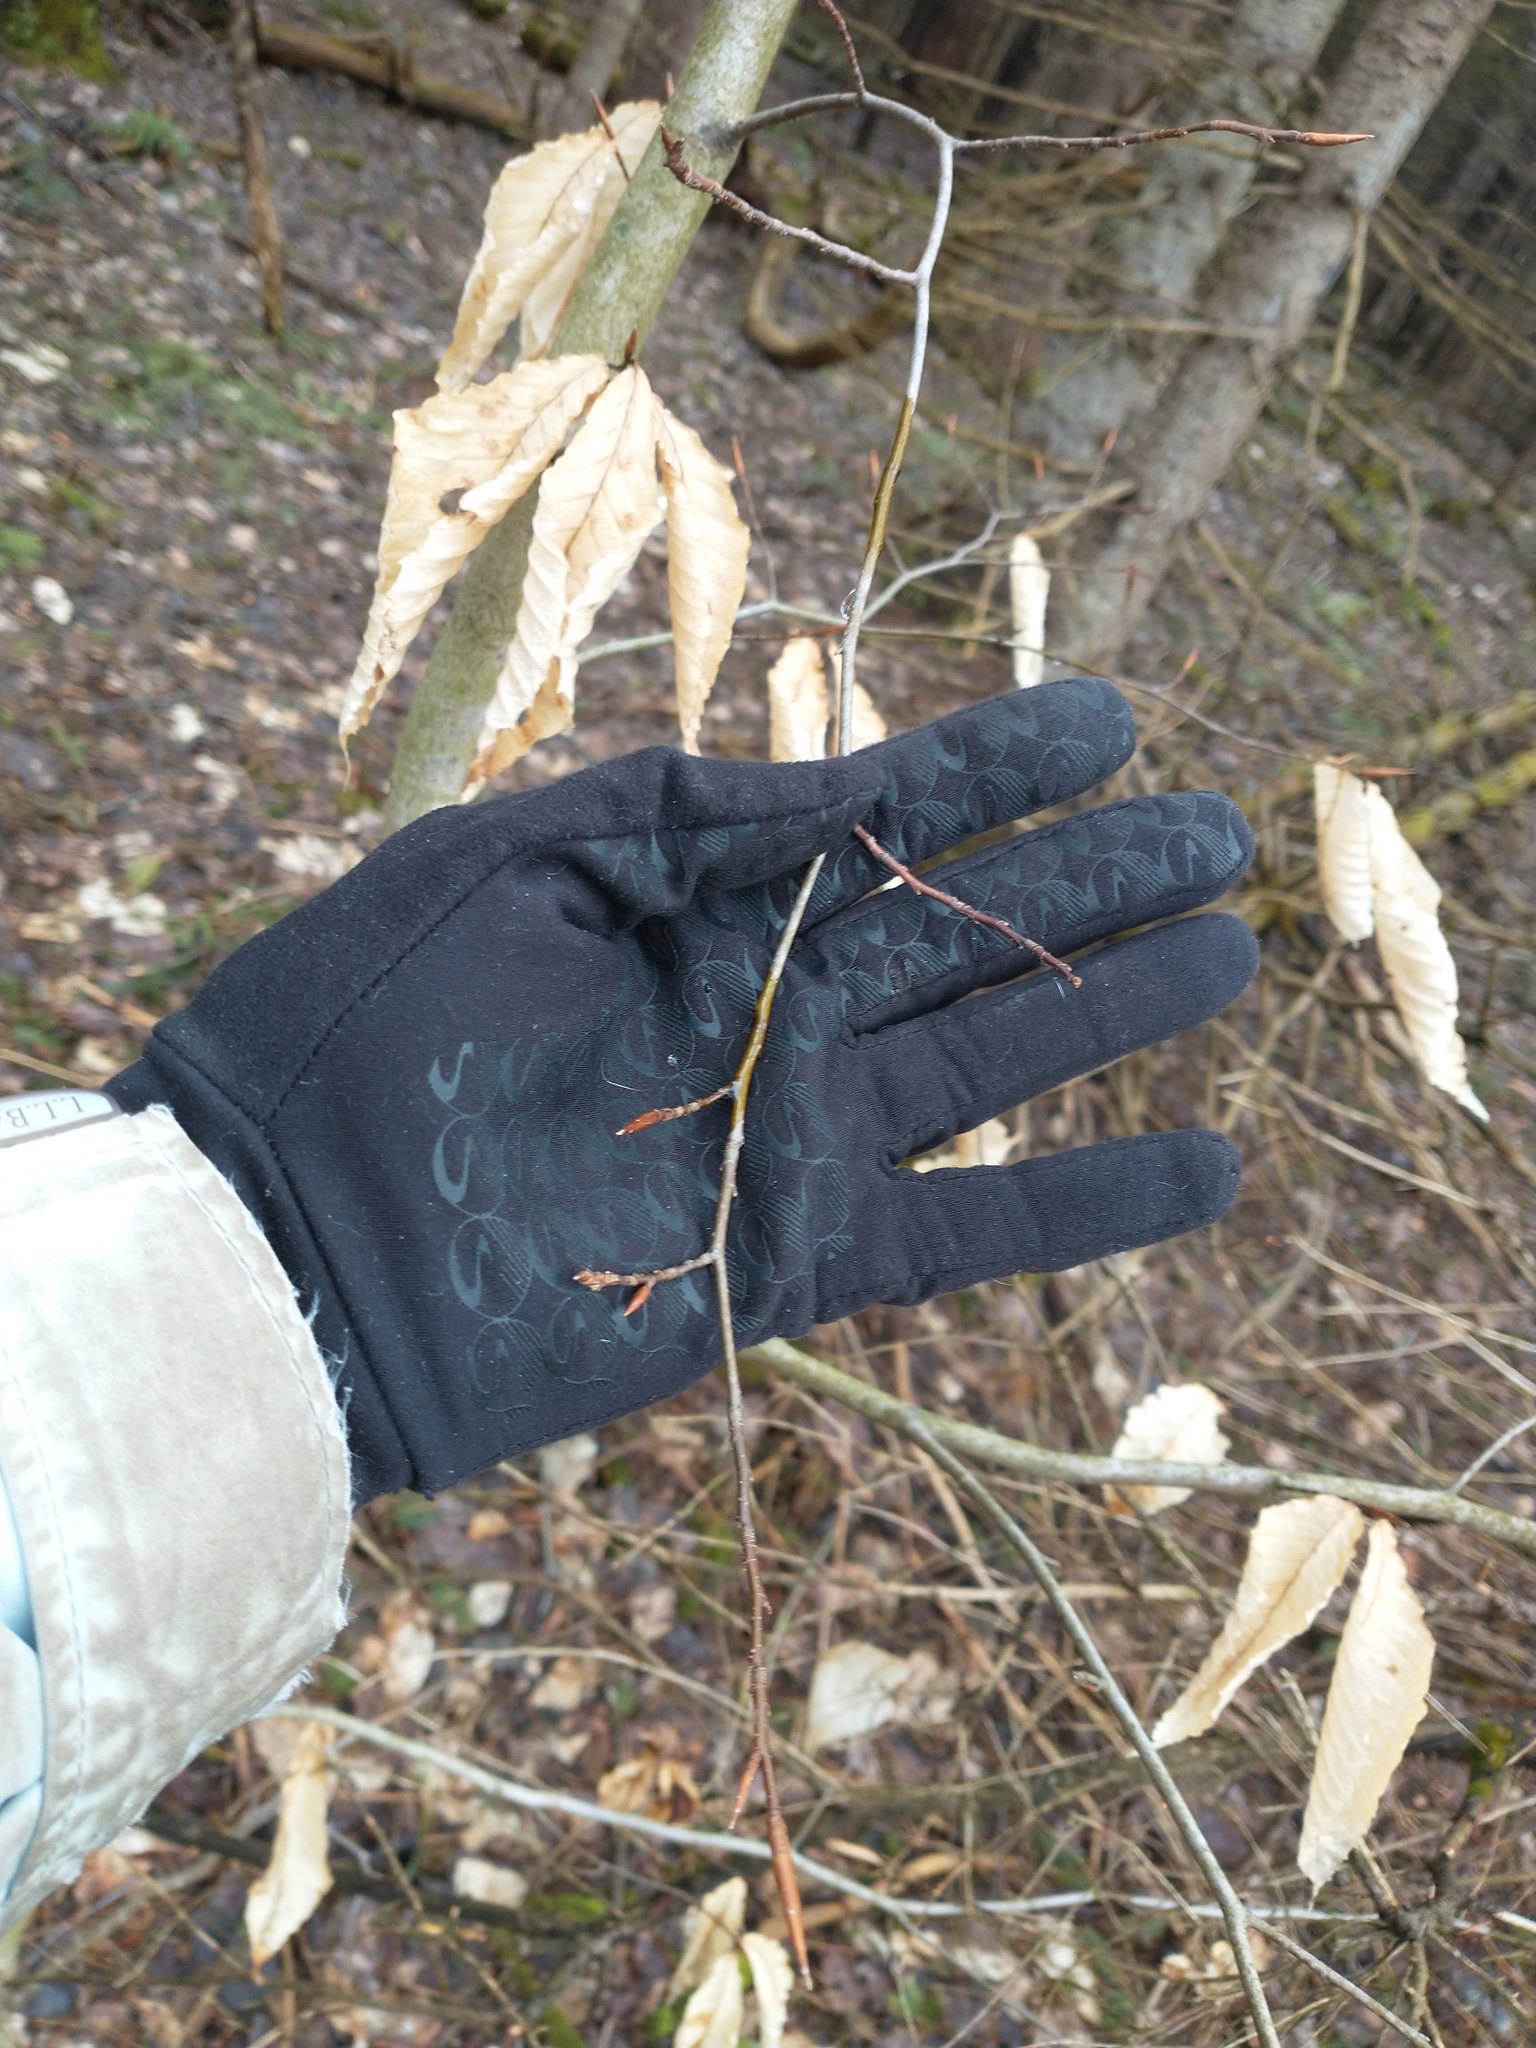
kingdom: Plantae
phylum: Tracheophyta
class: Magnoliopsida
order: Fagales
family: Fagaceae
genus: Fagus
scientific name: Fagus grandifolia
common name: American beech
